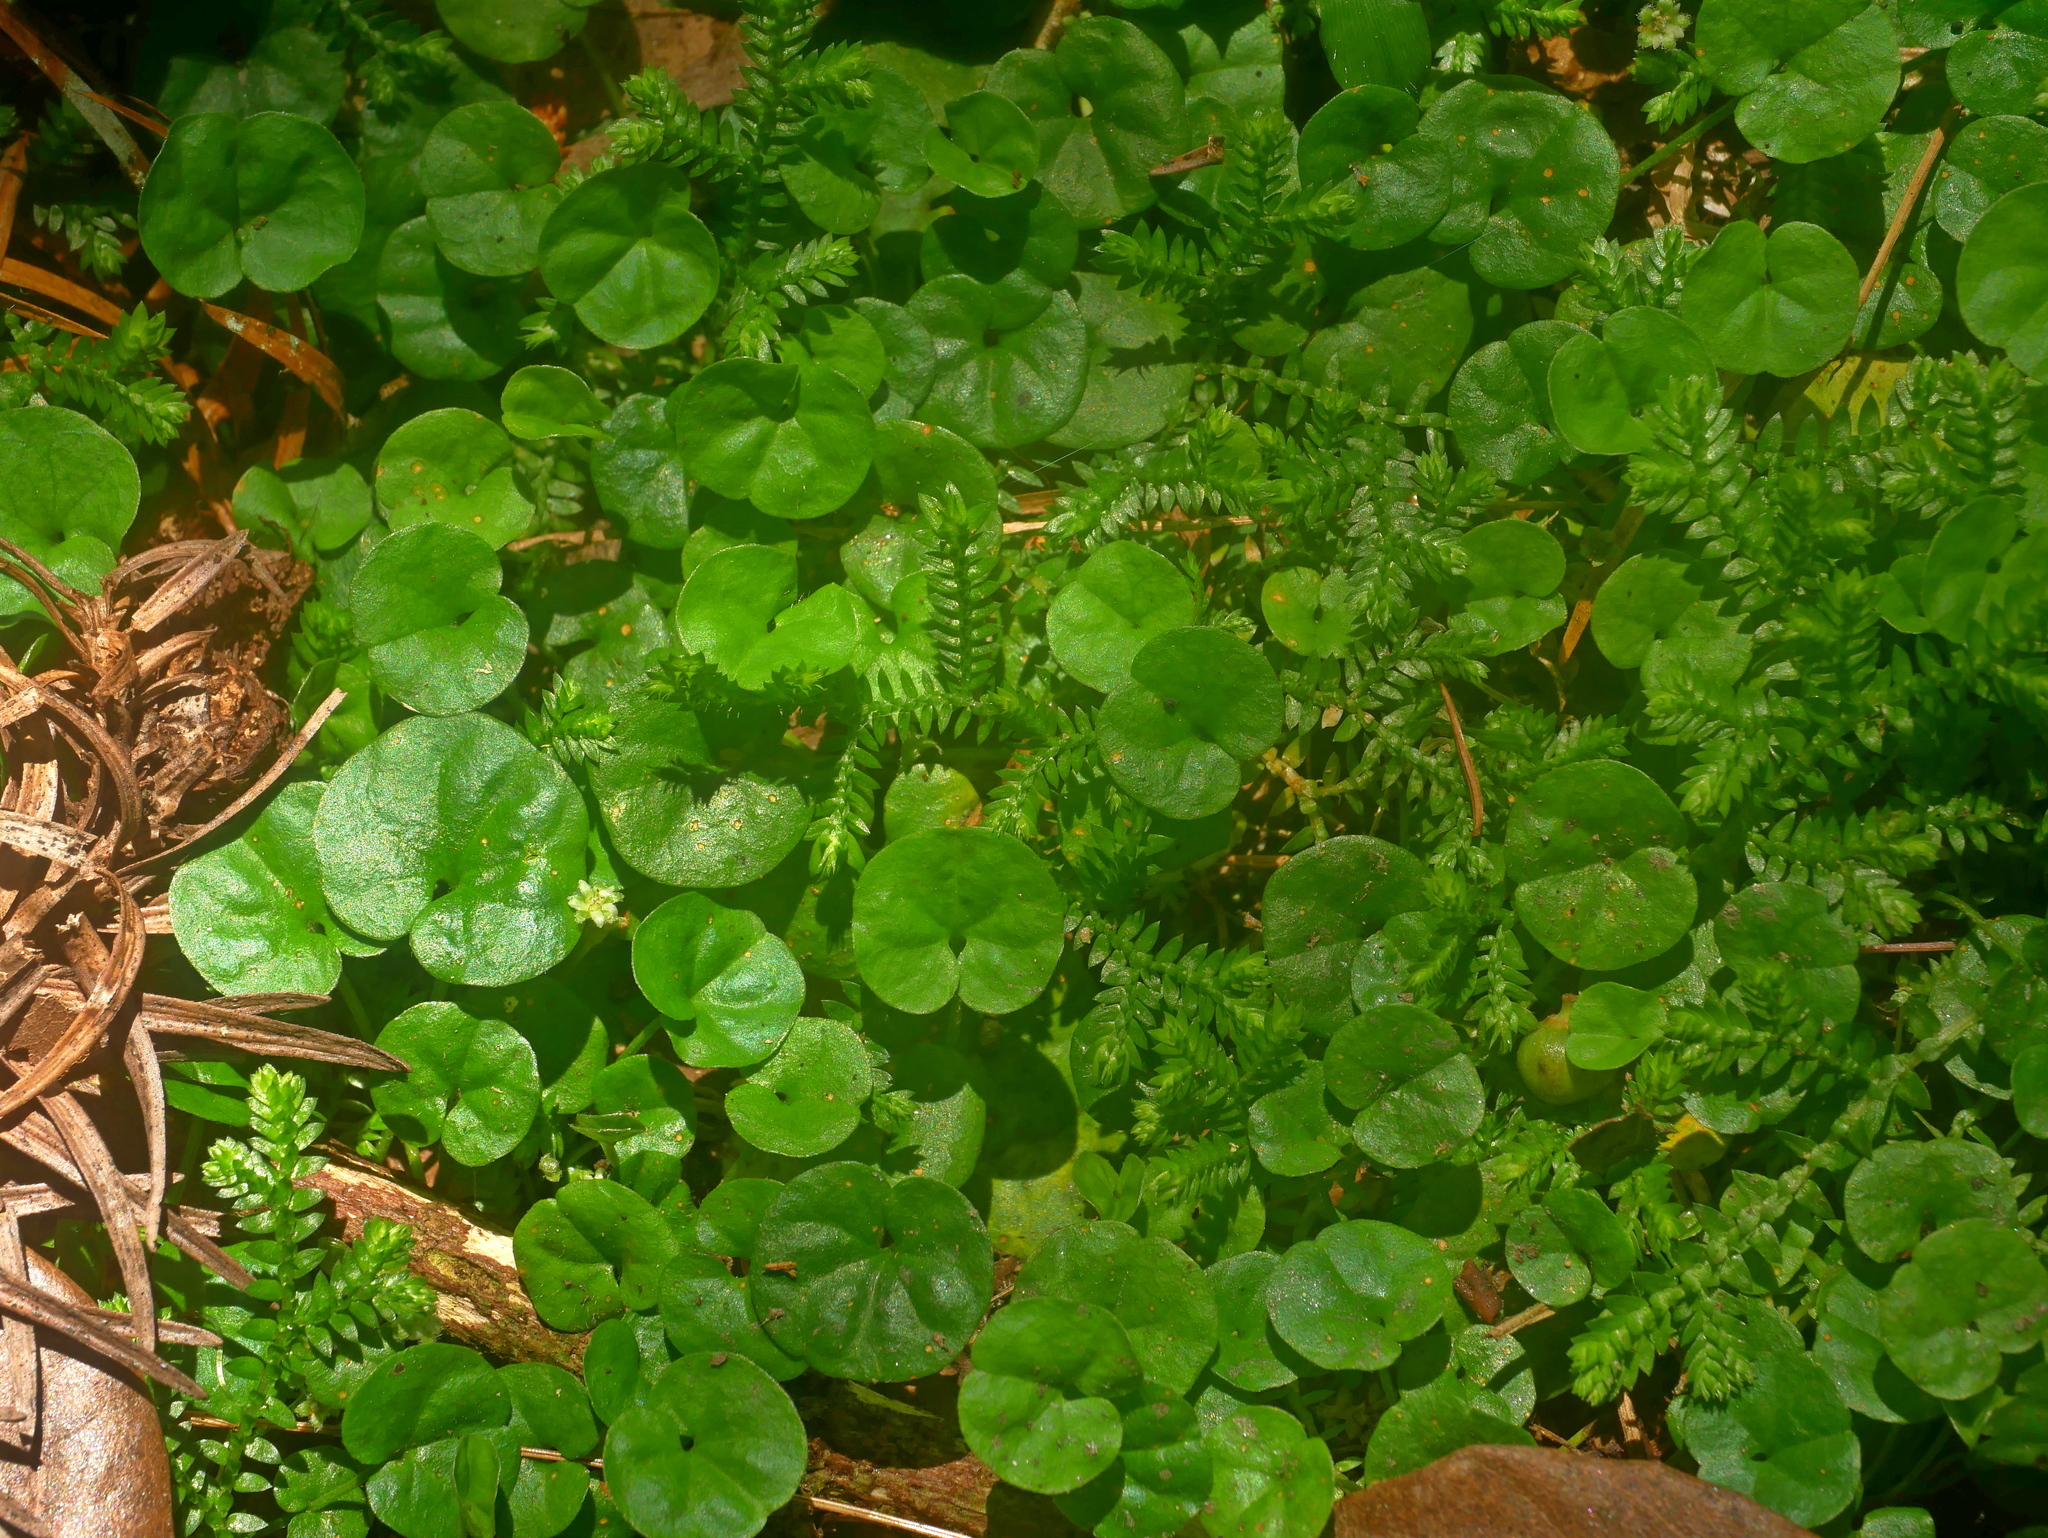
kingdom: Plantae
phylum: Tracheophyta
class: Magnoliopsida
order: Solanales
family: Convolvulaceae
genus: Dichondra
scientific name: Dichondra micrantha
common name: Kidneyweed
